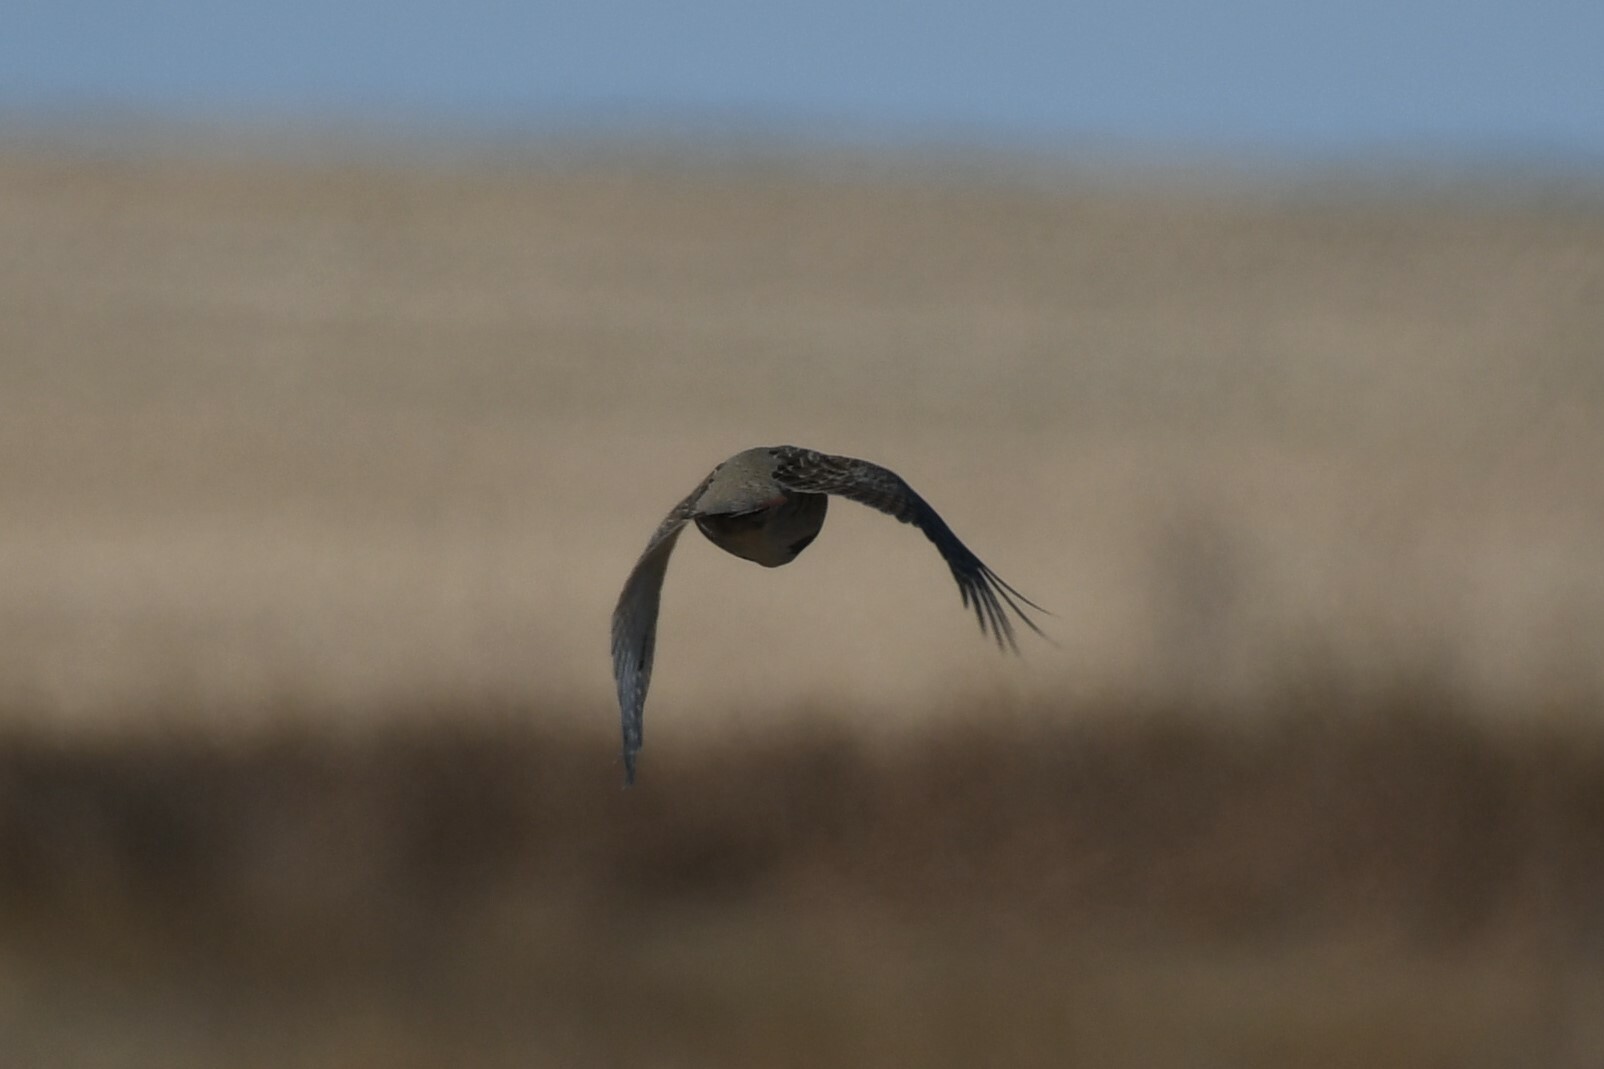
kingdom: Animalia
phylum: Chordata
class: Aves
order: Galliformes
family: Phasianidae
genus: Perdix
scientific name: Perdix perdix
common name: Grey partridge
